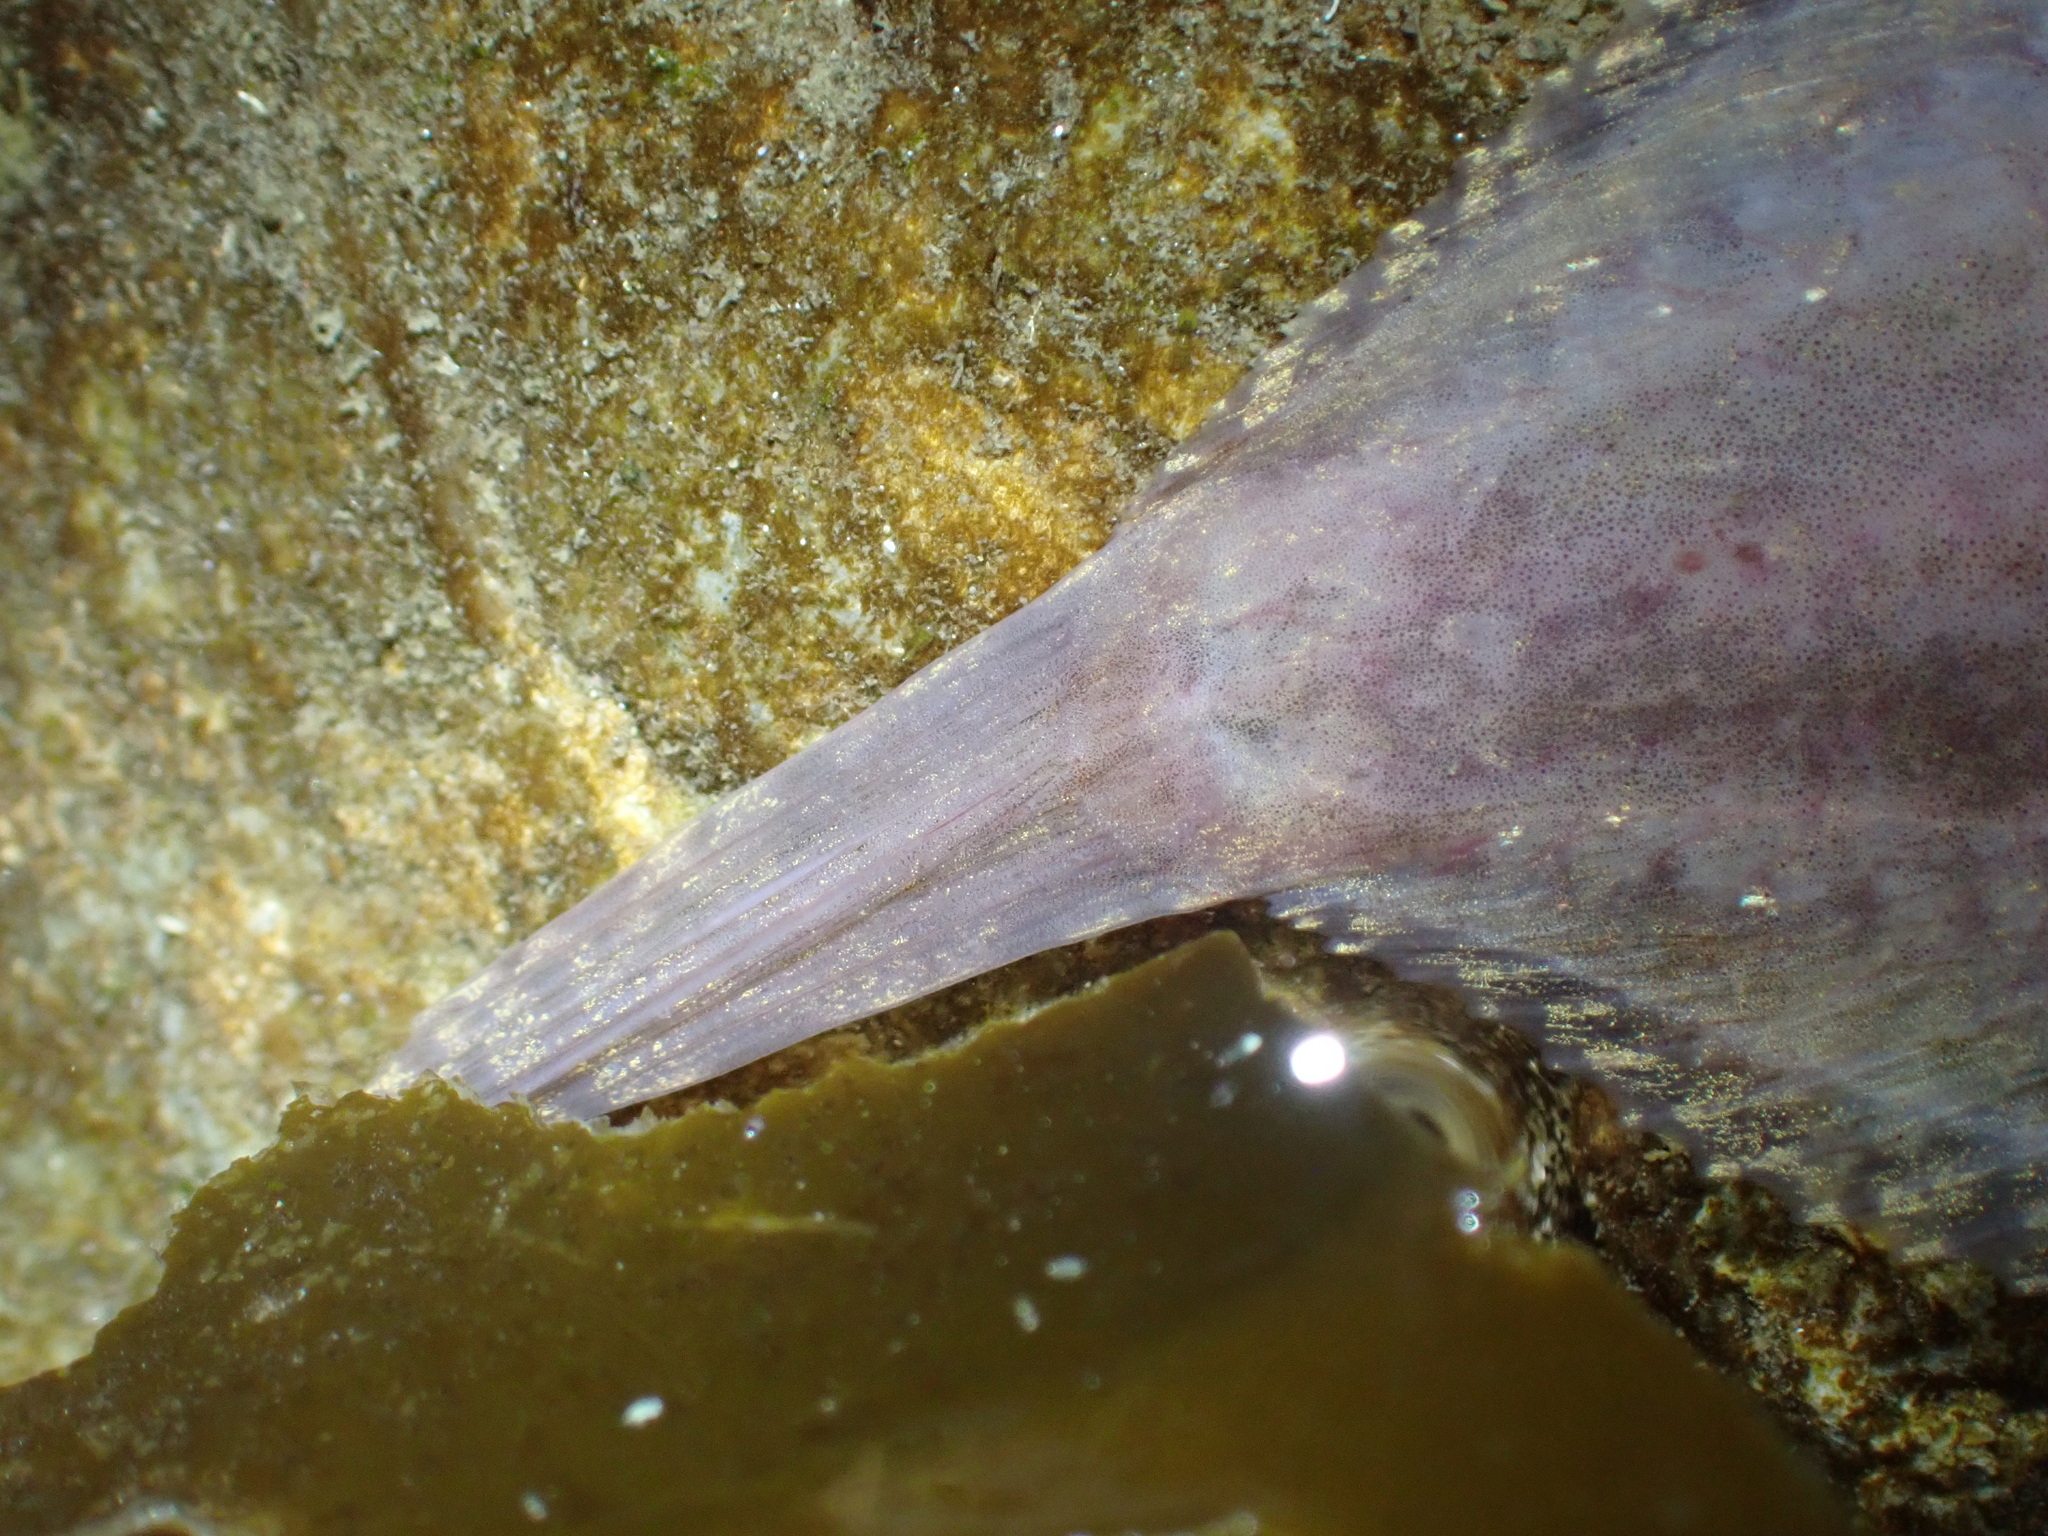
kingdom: Animalia
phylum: Chordata
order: Scorpaeniformes
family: Liparidae
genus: Liparis
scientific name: Liparis florae
